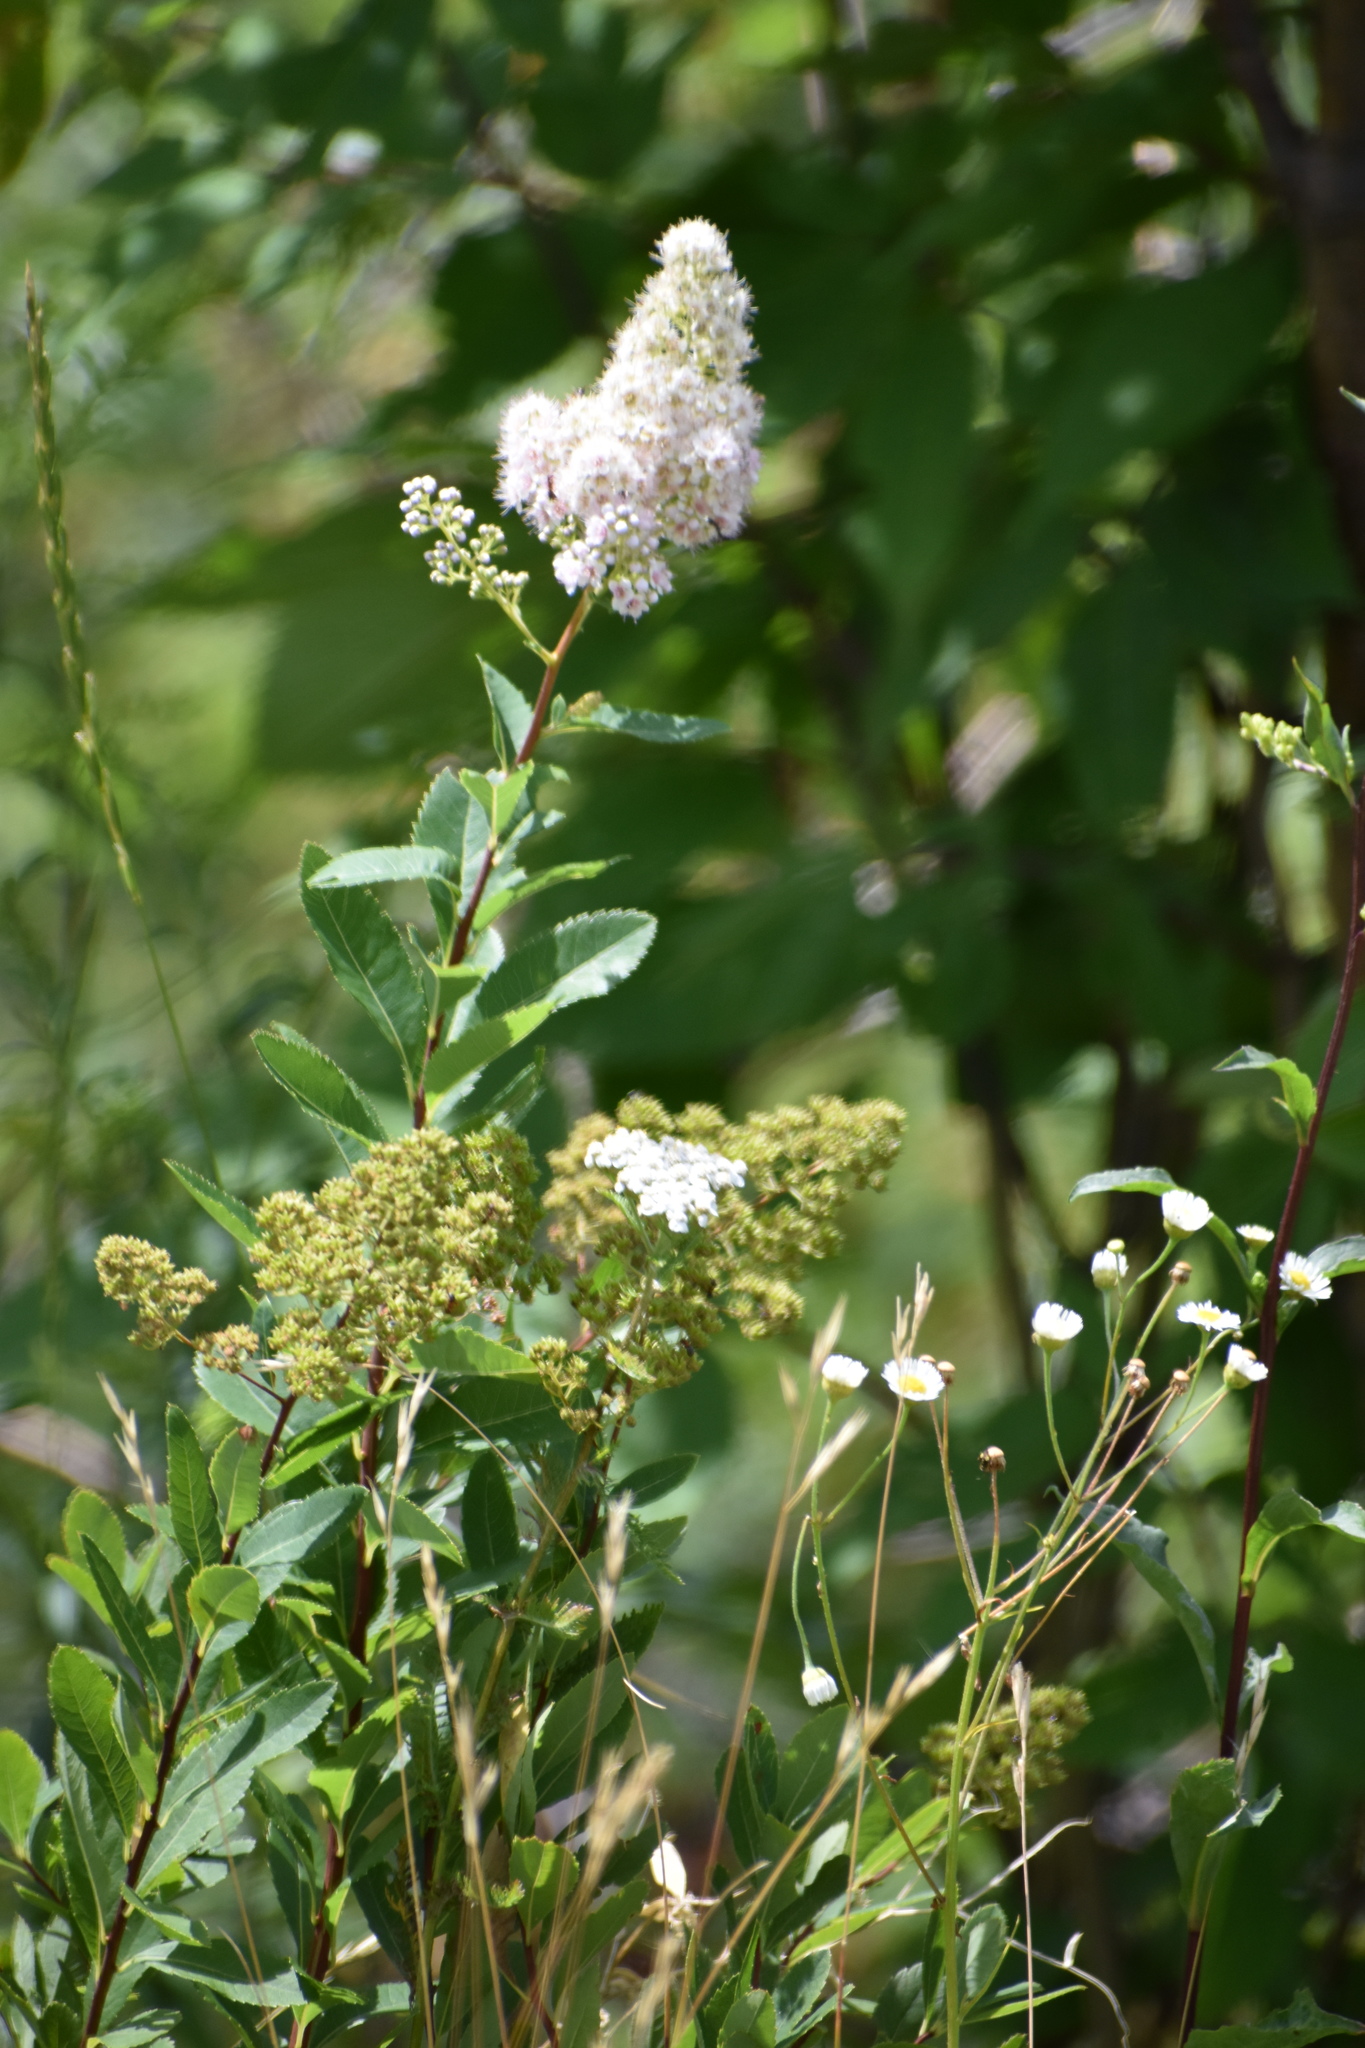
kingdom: Plantae
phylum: Tracheophyta
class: Magnoliopsida
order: Rosales
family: Rosaceae
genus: Spiraea
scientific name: Spiraea alba
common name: Pale bridewort
